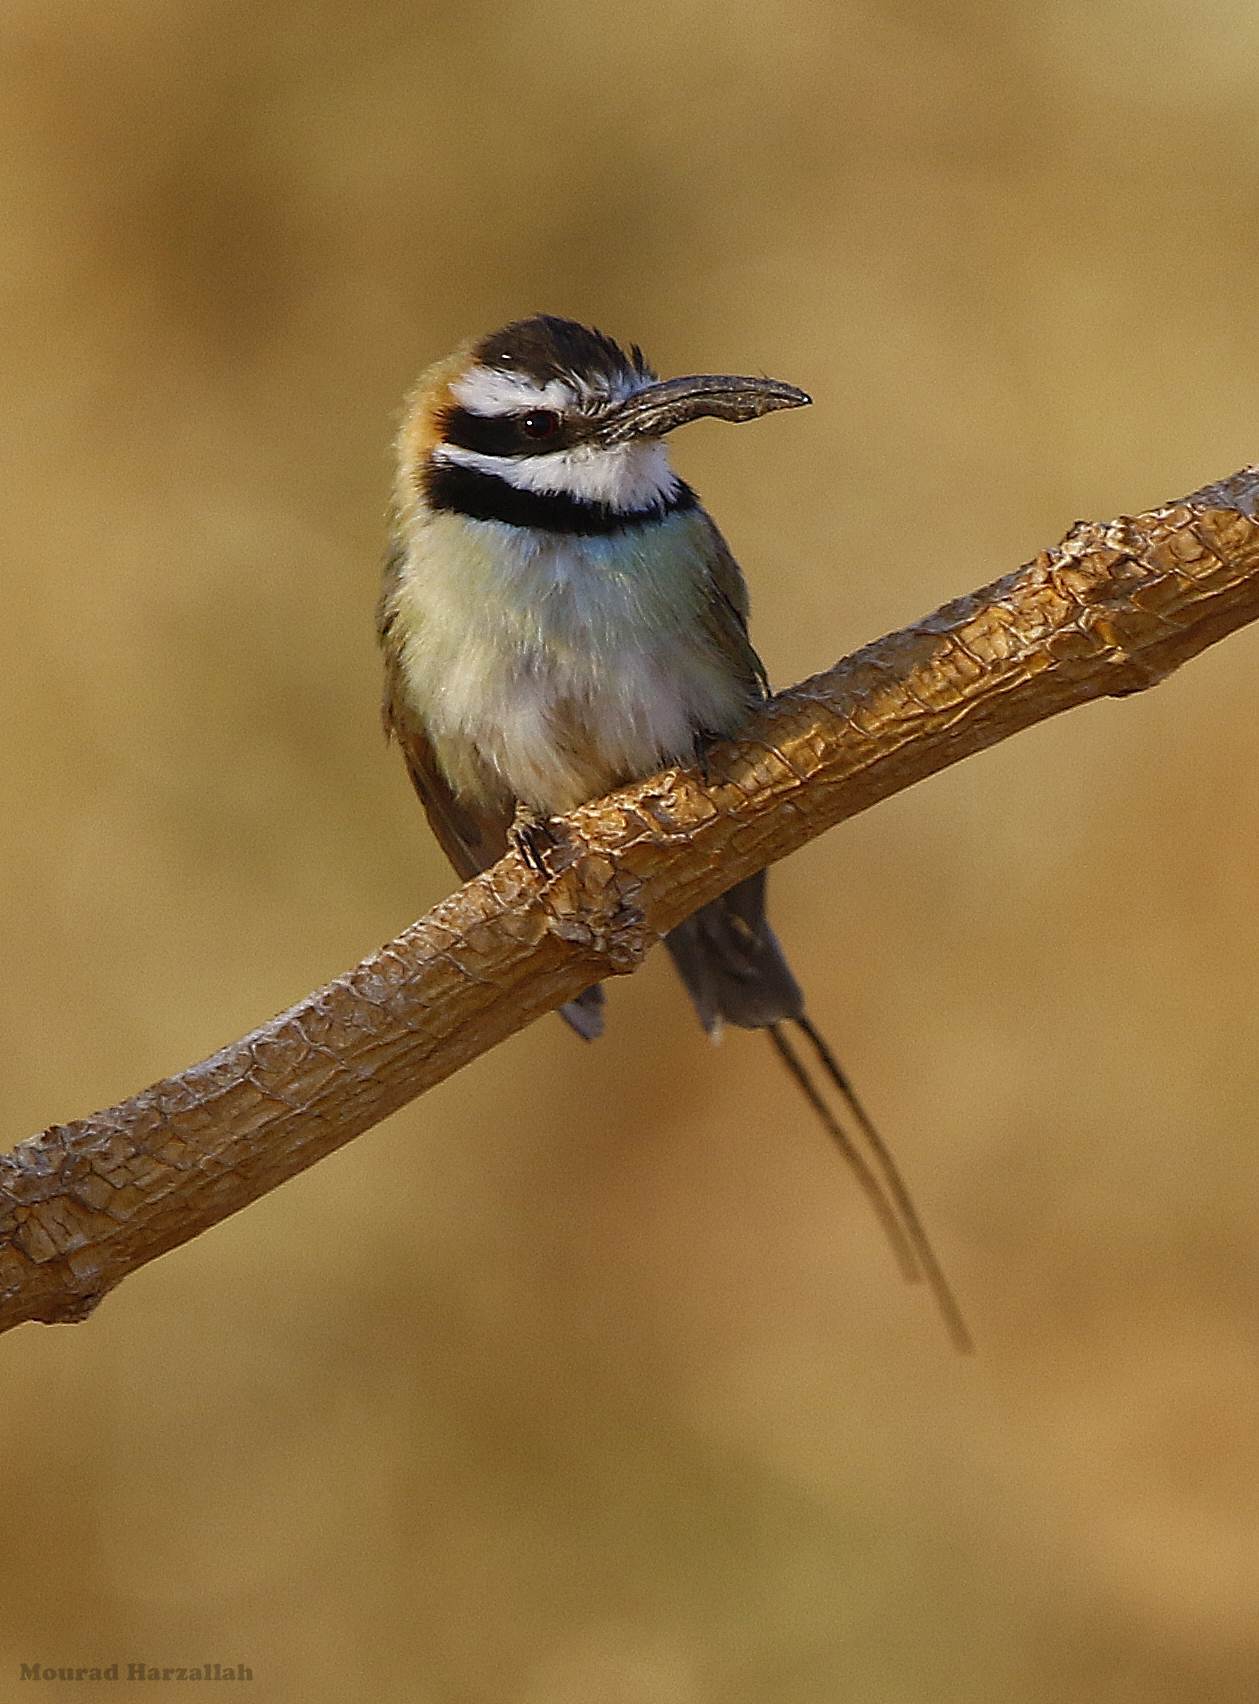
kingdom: Animalia
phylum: Chordata
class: Aves
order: Coraciiformes
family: Meropidae
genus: Merops
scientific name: Merops albicollis
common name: White-throated bee-eater
